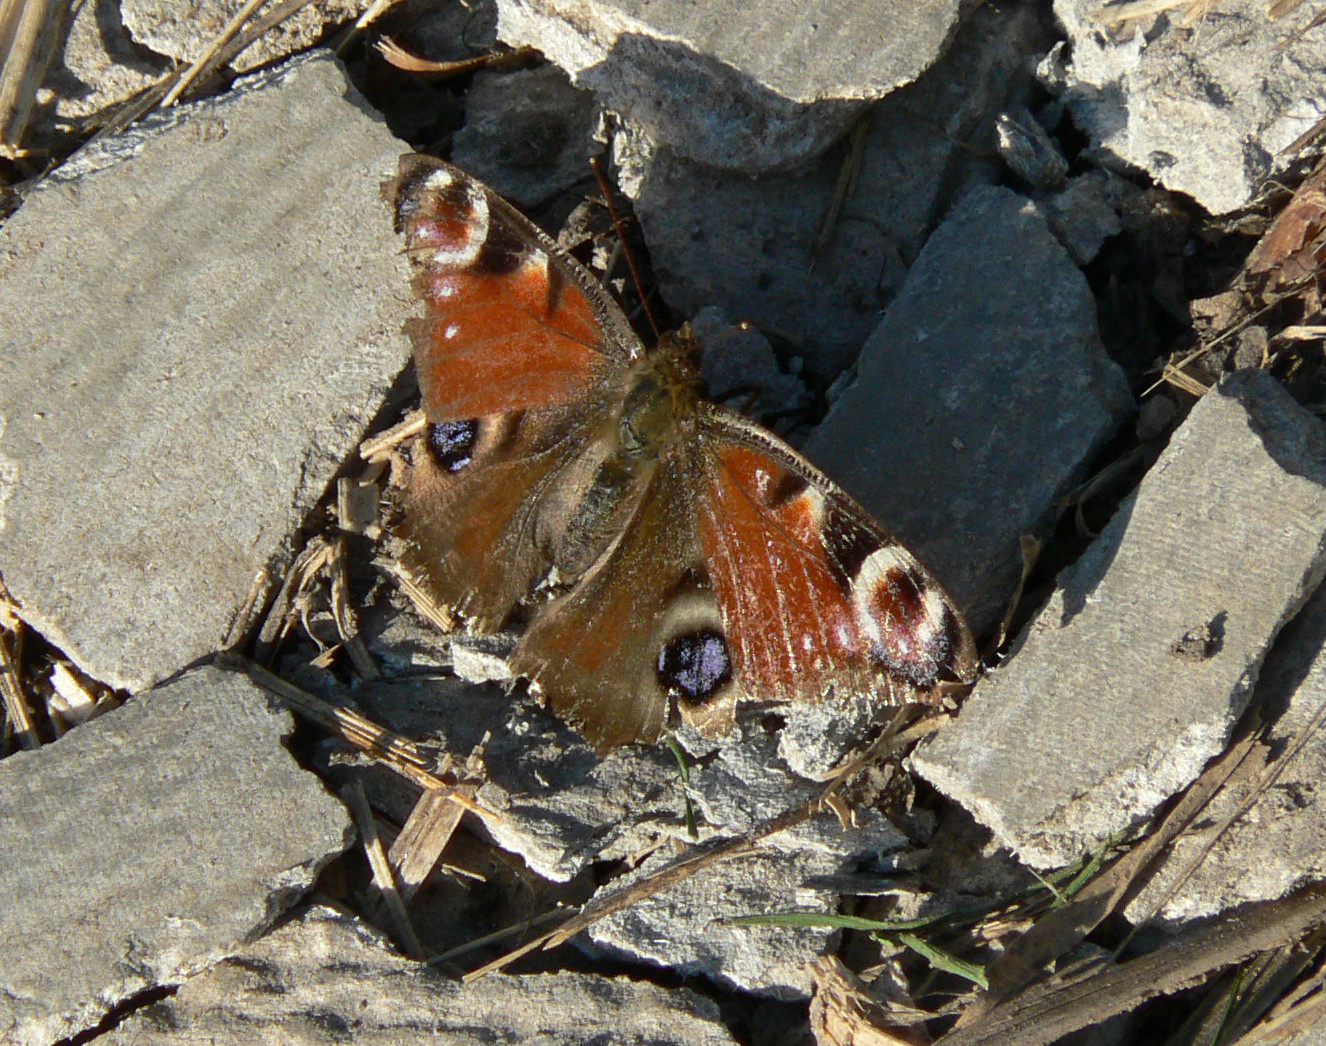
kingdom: Animalia
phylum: Arthropoda
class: Insecta
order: Lepidoptera
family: Nymphalidae
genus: Aglais
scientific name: Aglais io
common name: Peacock
